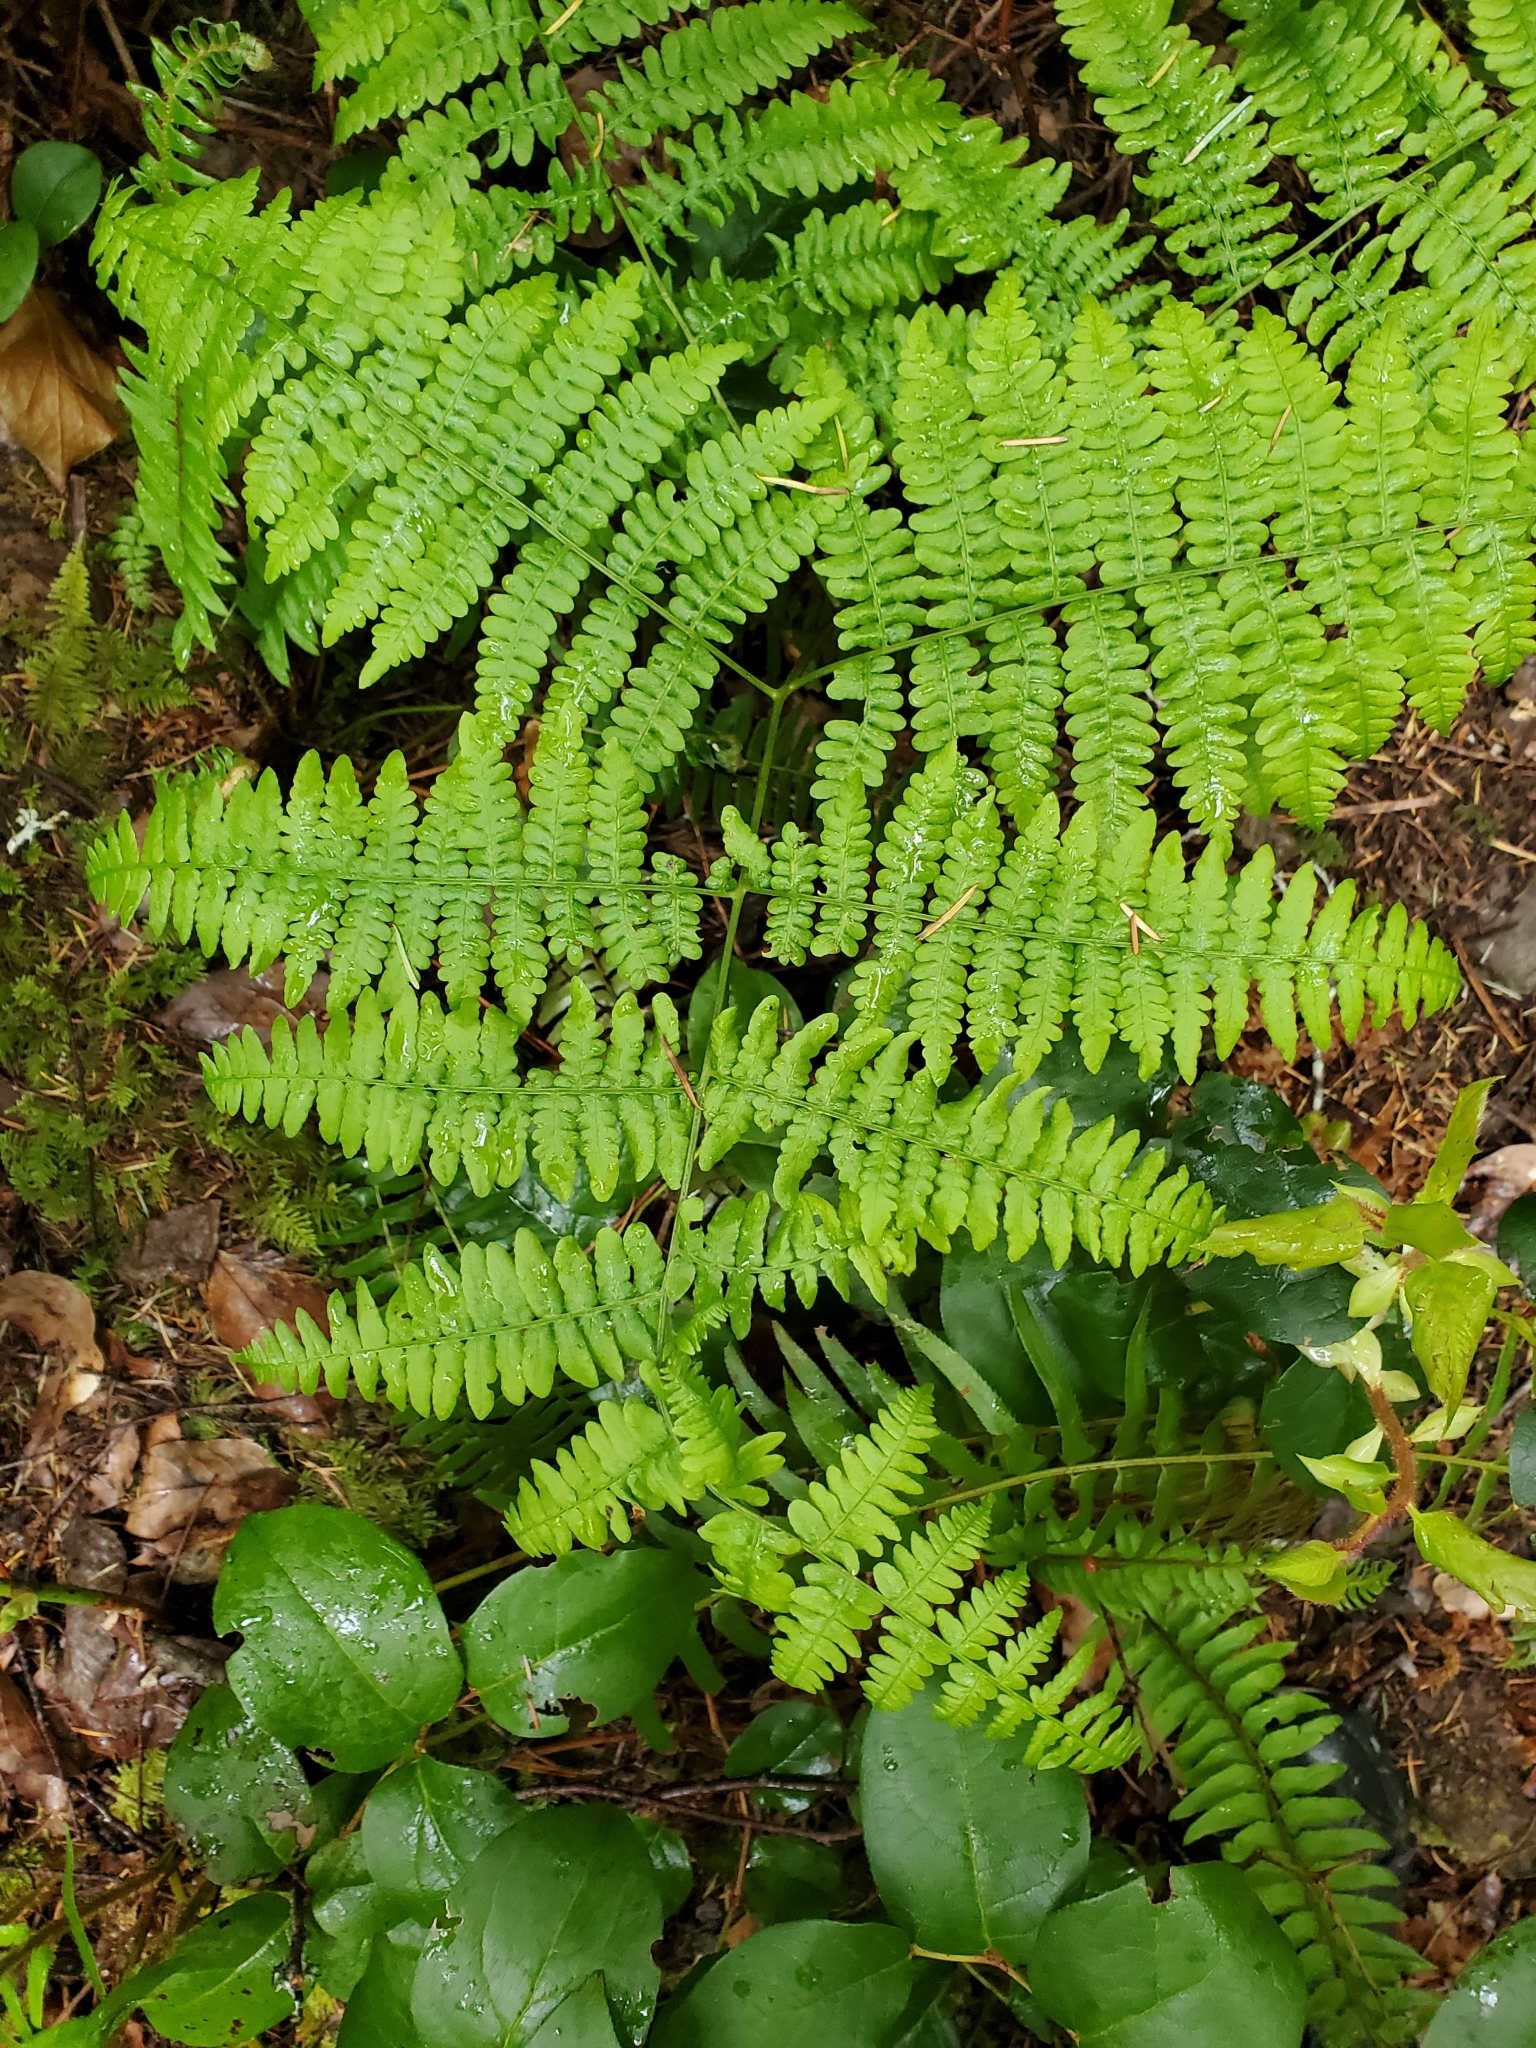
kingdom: Plantae
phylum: Tracheophyta
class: Polypodiopsida
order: Polypodiales
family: Dennstaedtiaceae
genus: Pteridium
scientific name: Pteridium aquilinum
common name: Bracken
